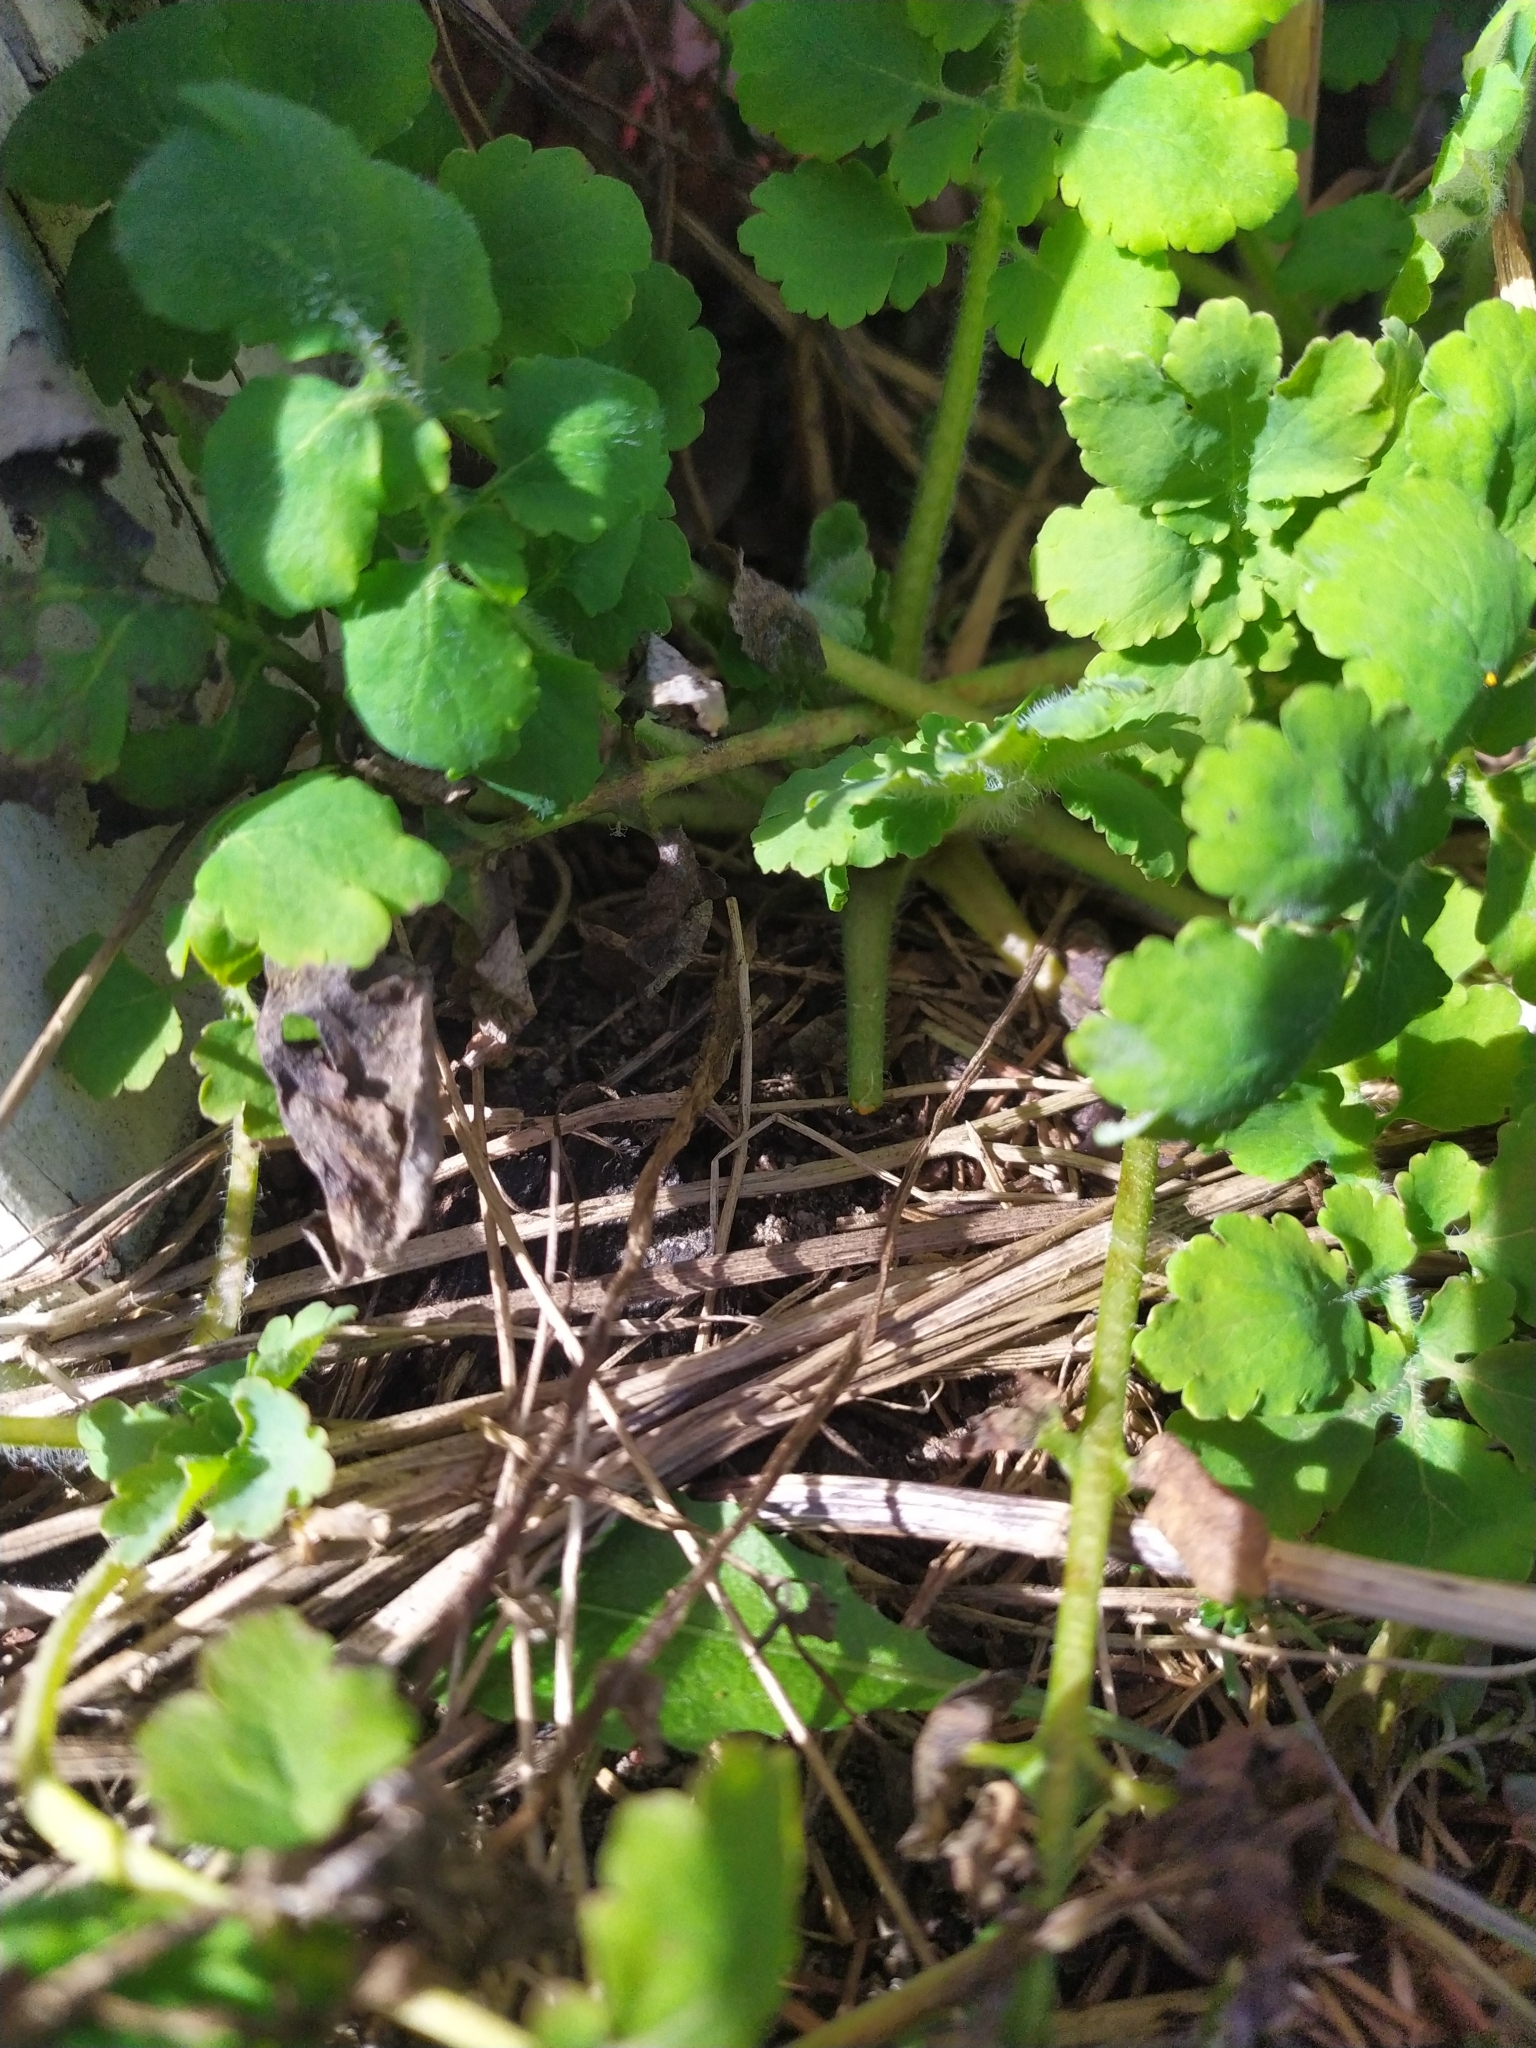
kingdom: Plantae
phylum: Tracheophyta
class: Magnoliopsida
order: Ranunculales
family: Papaveraceae
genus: Chelidonium
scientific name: Chelidonium majus
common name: Greater celandine
